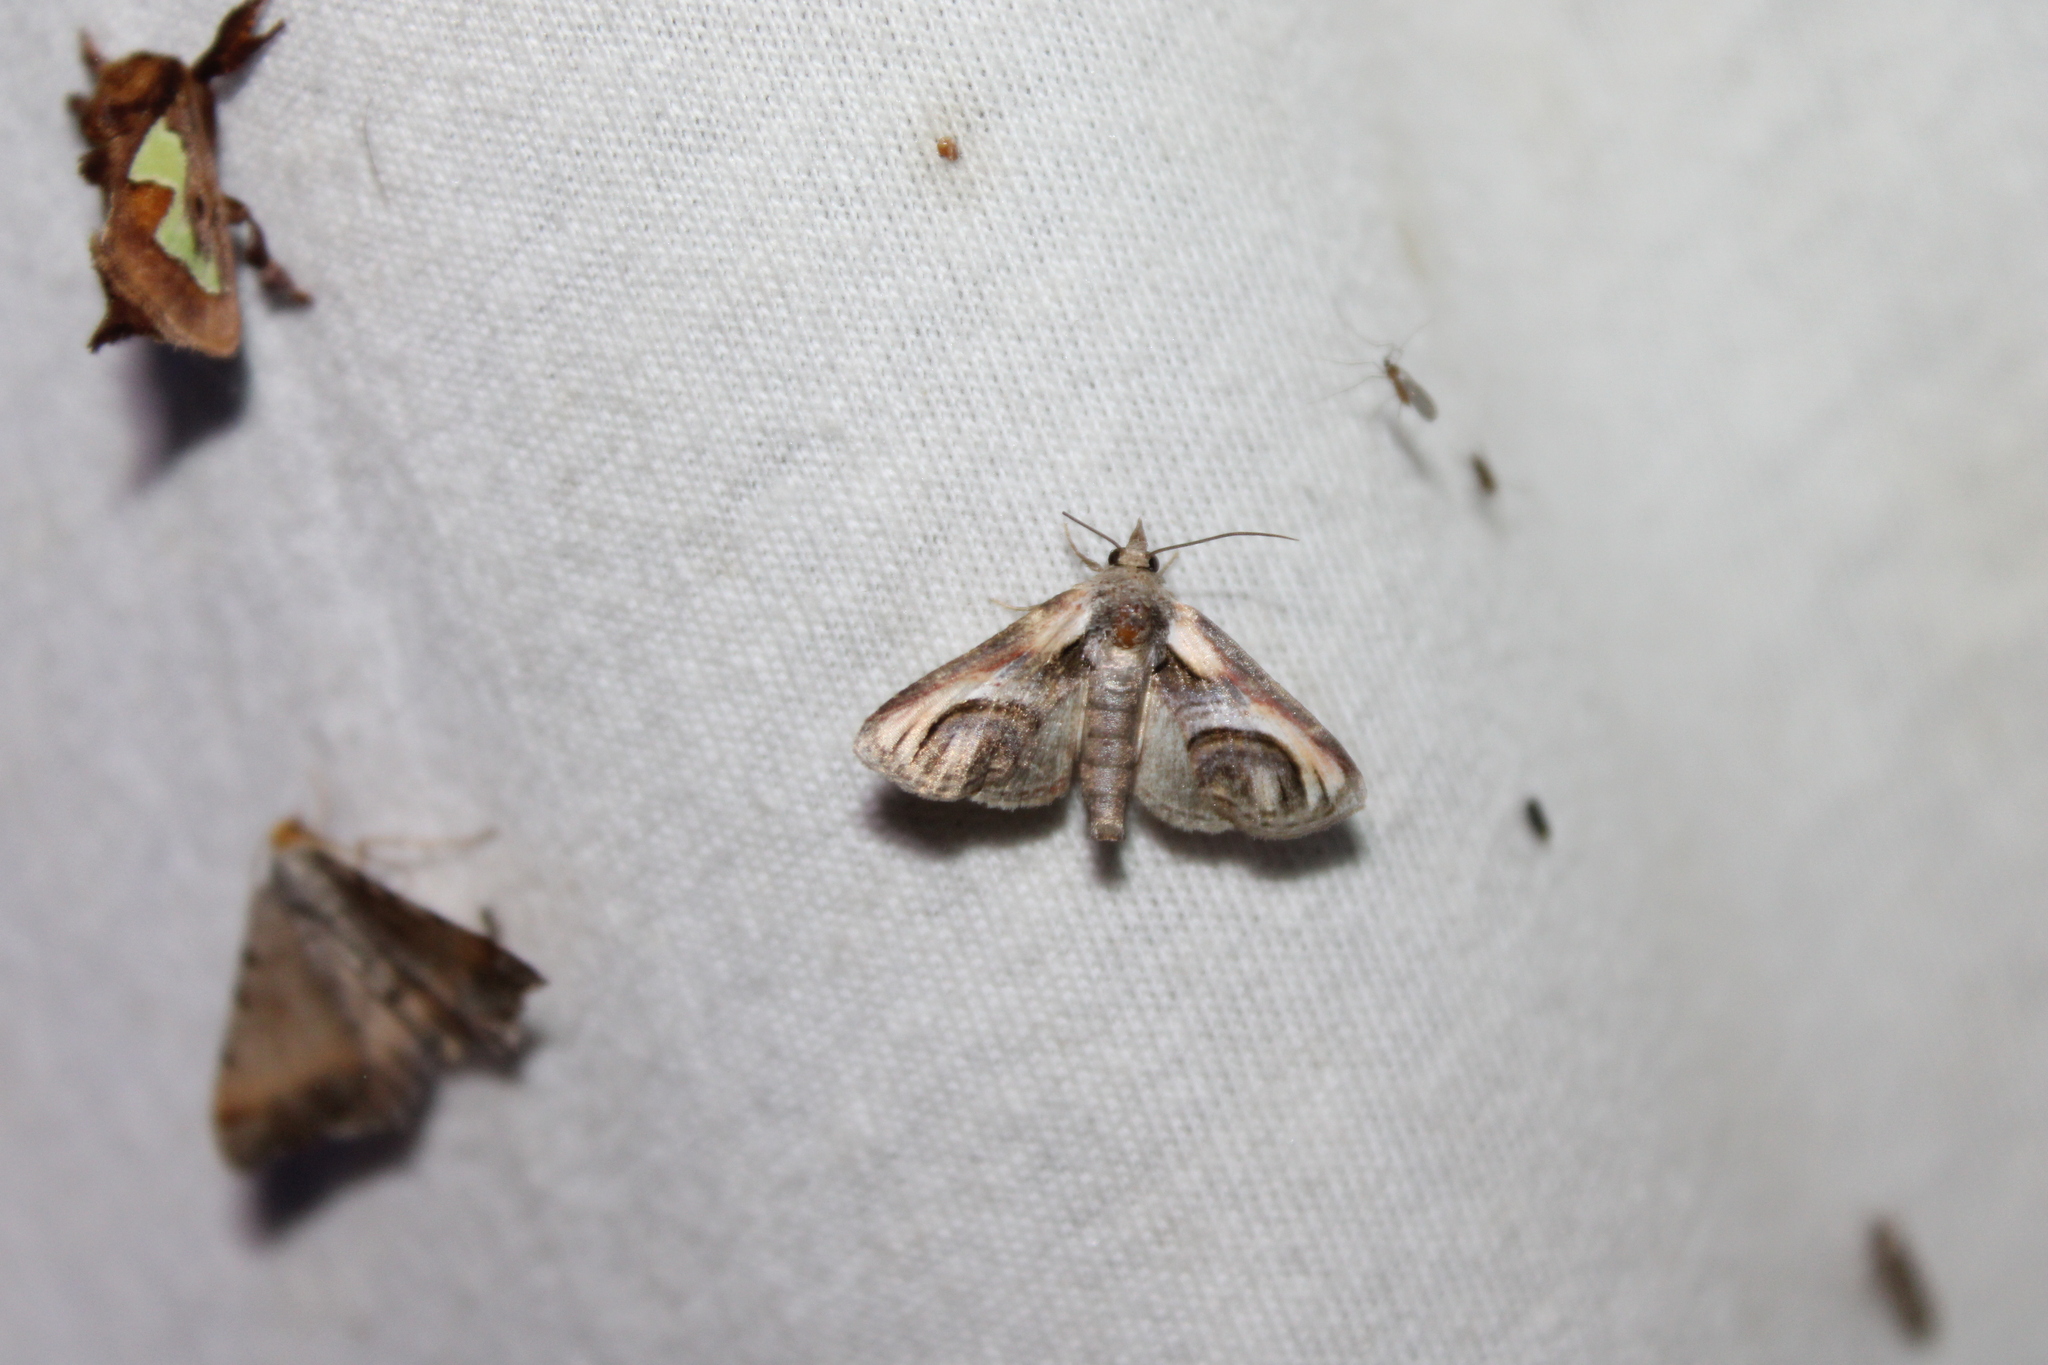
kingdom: Animalia
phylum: Arthropoda
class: Insecta
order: Lepidoptera
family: Euteliidae
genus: Paectes
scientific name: Paectes oculatrix
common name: Eyed paectes moth
